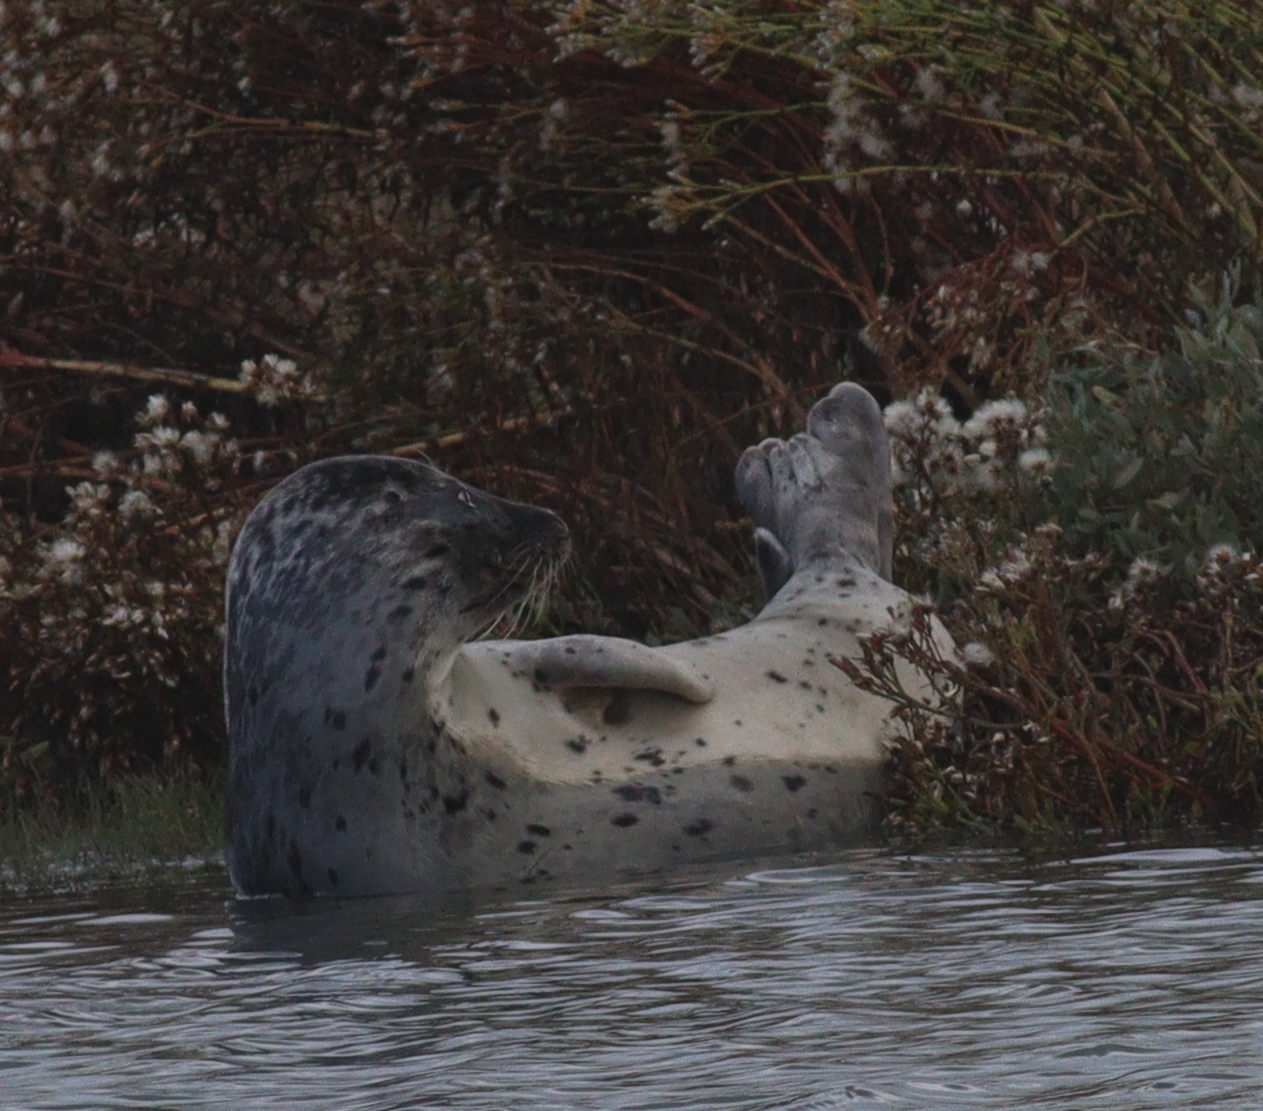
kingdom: Animalia
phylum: Chordata
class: Mammalia
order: Carnivora
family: Phocidae
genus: Phoca
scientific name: Phoca vitulina
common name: Harbor seal
